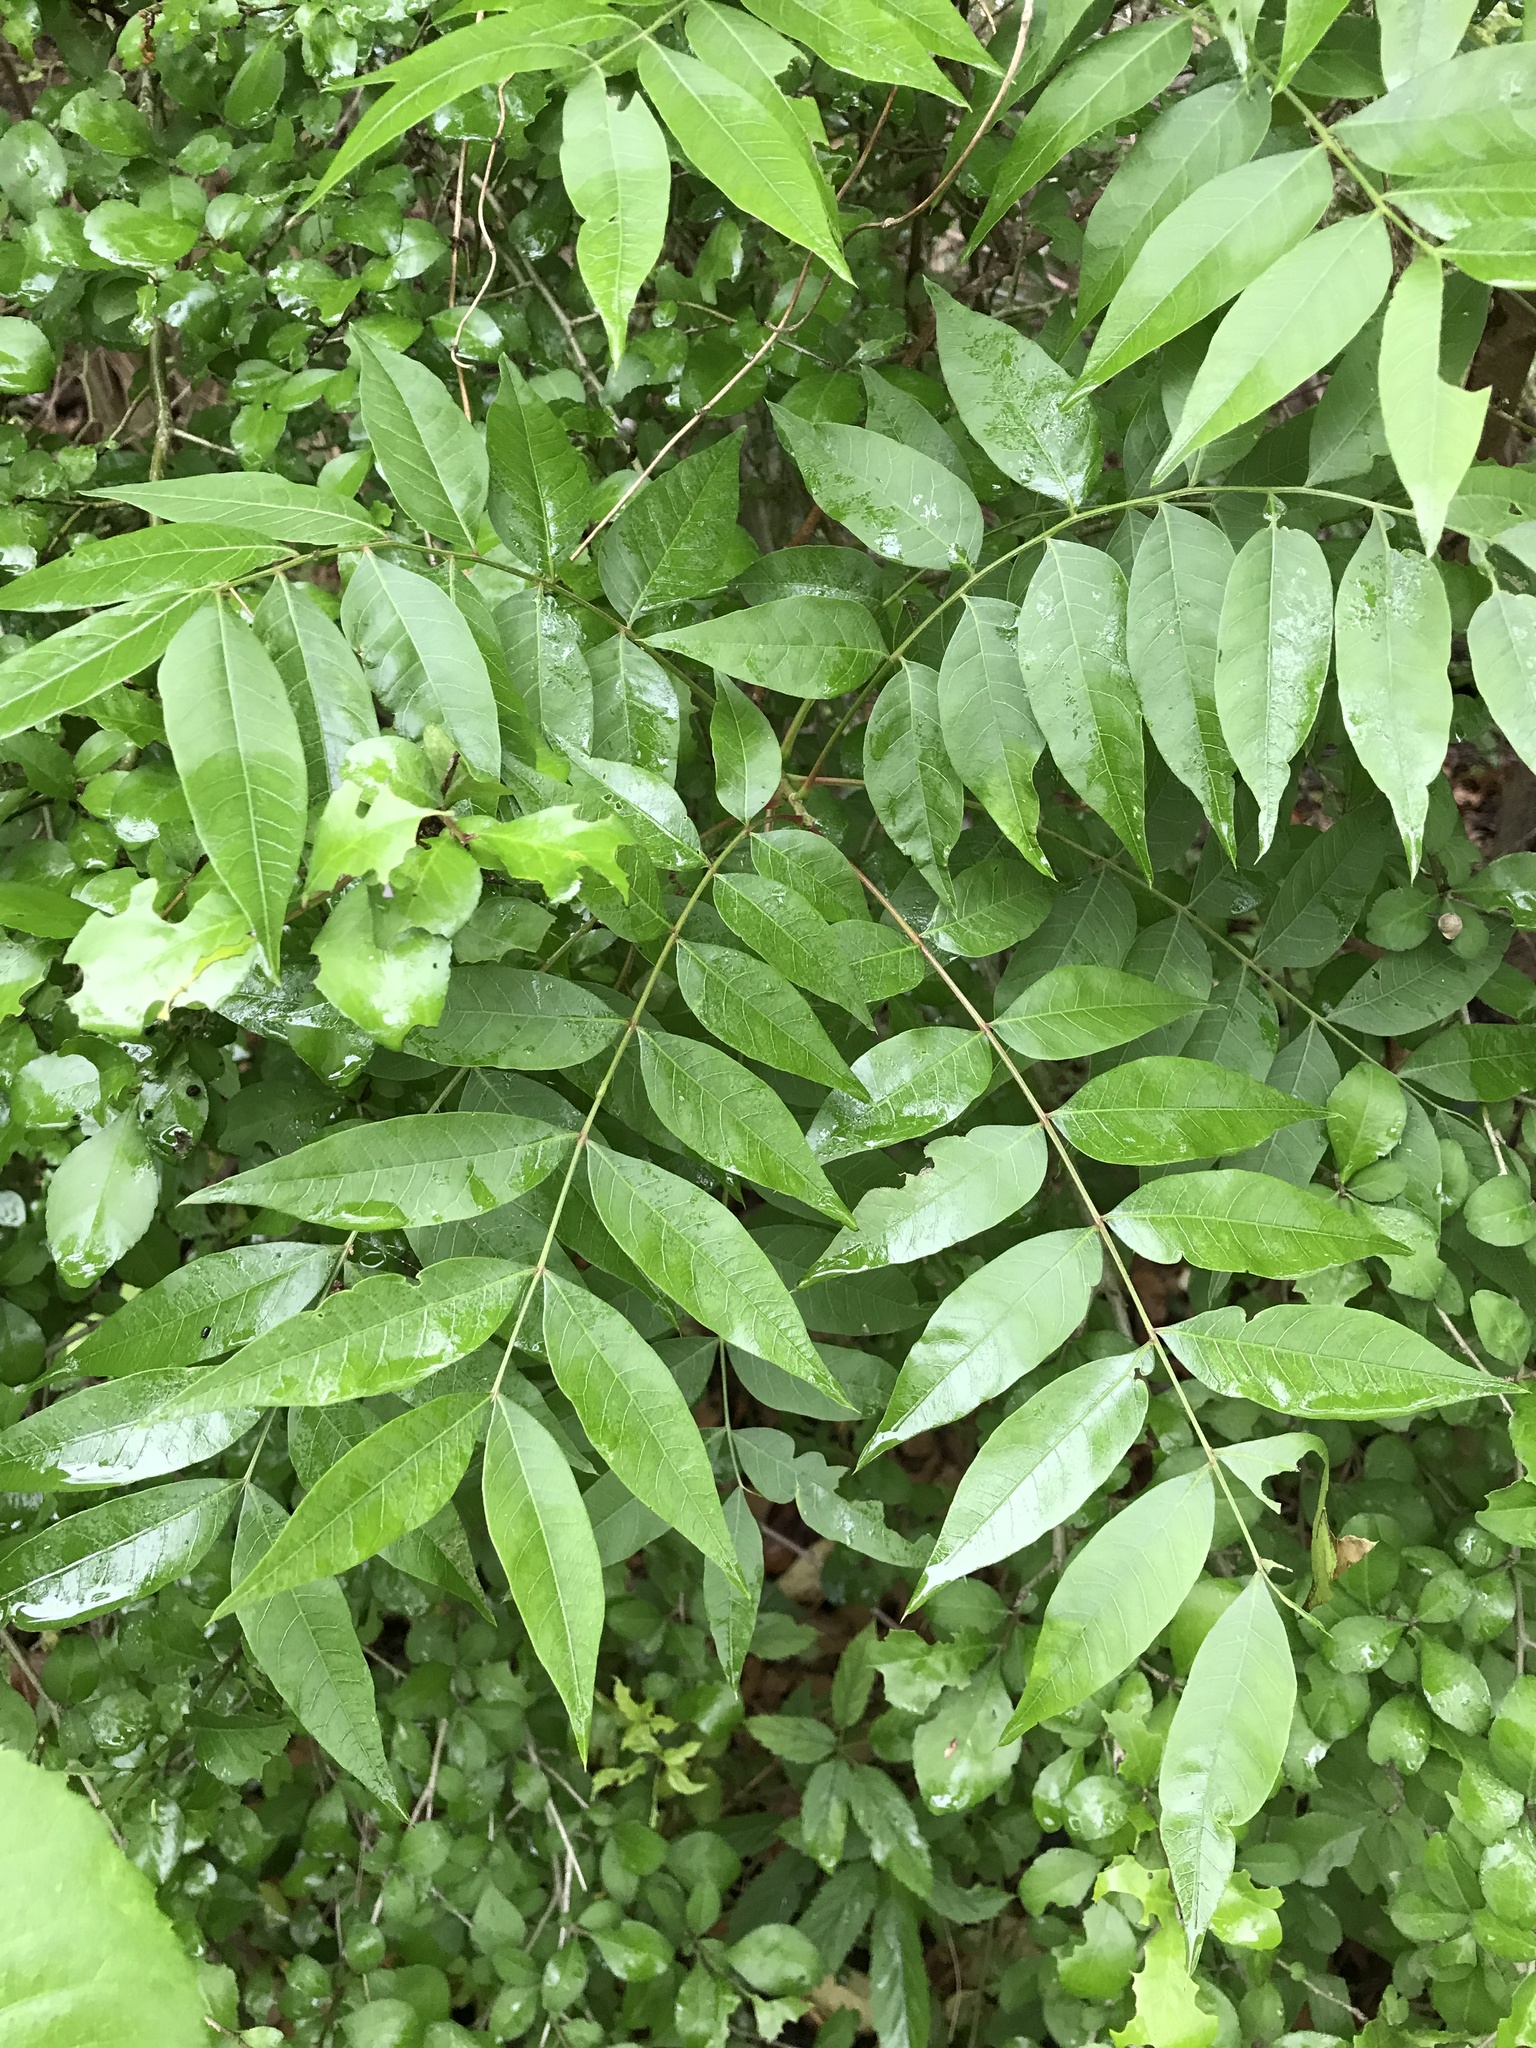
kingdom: Plantae
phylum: Tracheophyta
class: Magnoliopsida
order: Sapindales
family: Anacardiaceae
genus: Pistacia
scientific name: Pistacia chinensis
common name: Chinese pistache
